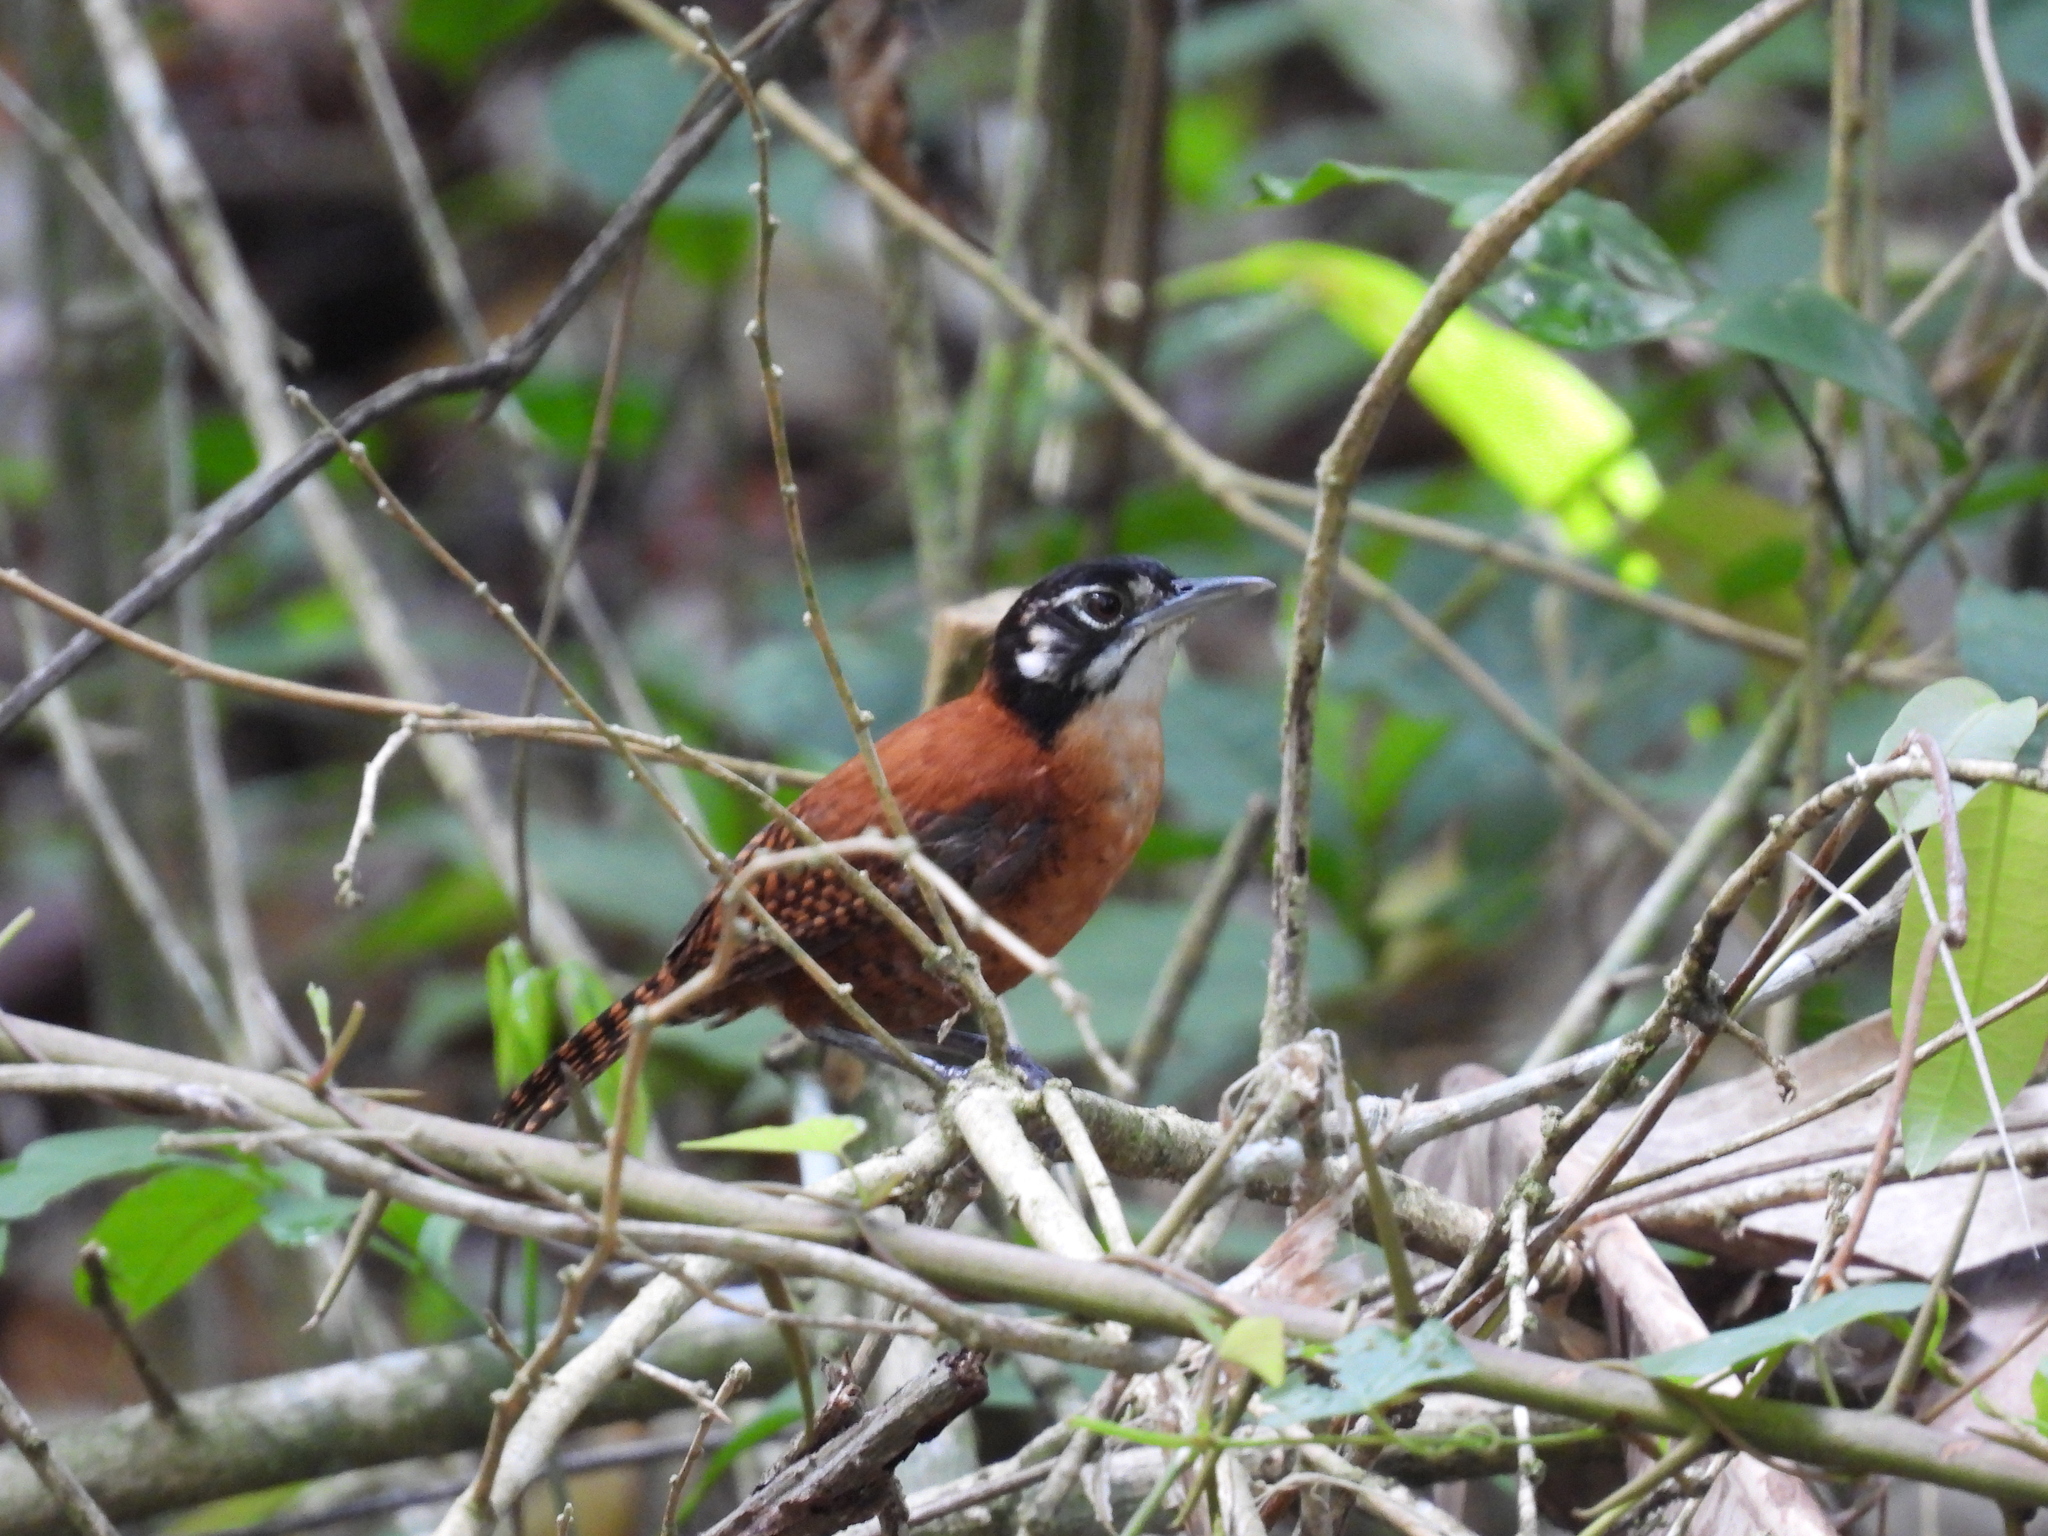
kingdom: Animalia
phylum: Chordata
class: Aves
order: Passeriformes
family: Troglodytidae
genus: Cantorchilus
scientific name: Cantorchilus nigricapillus
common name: Bay wren
